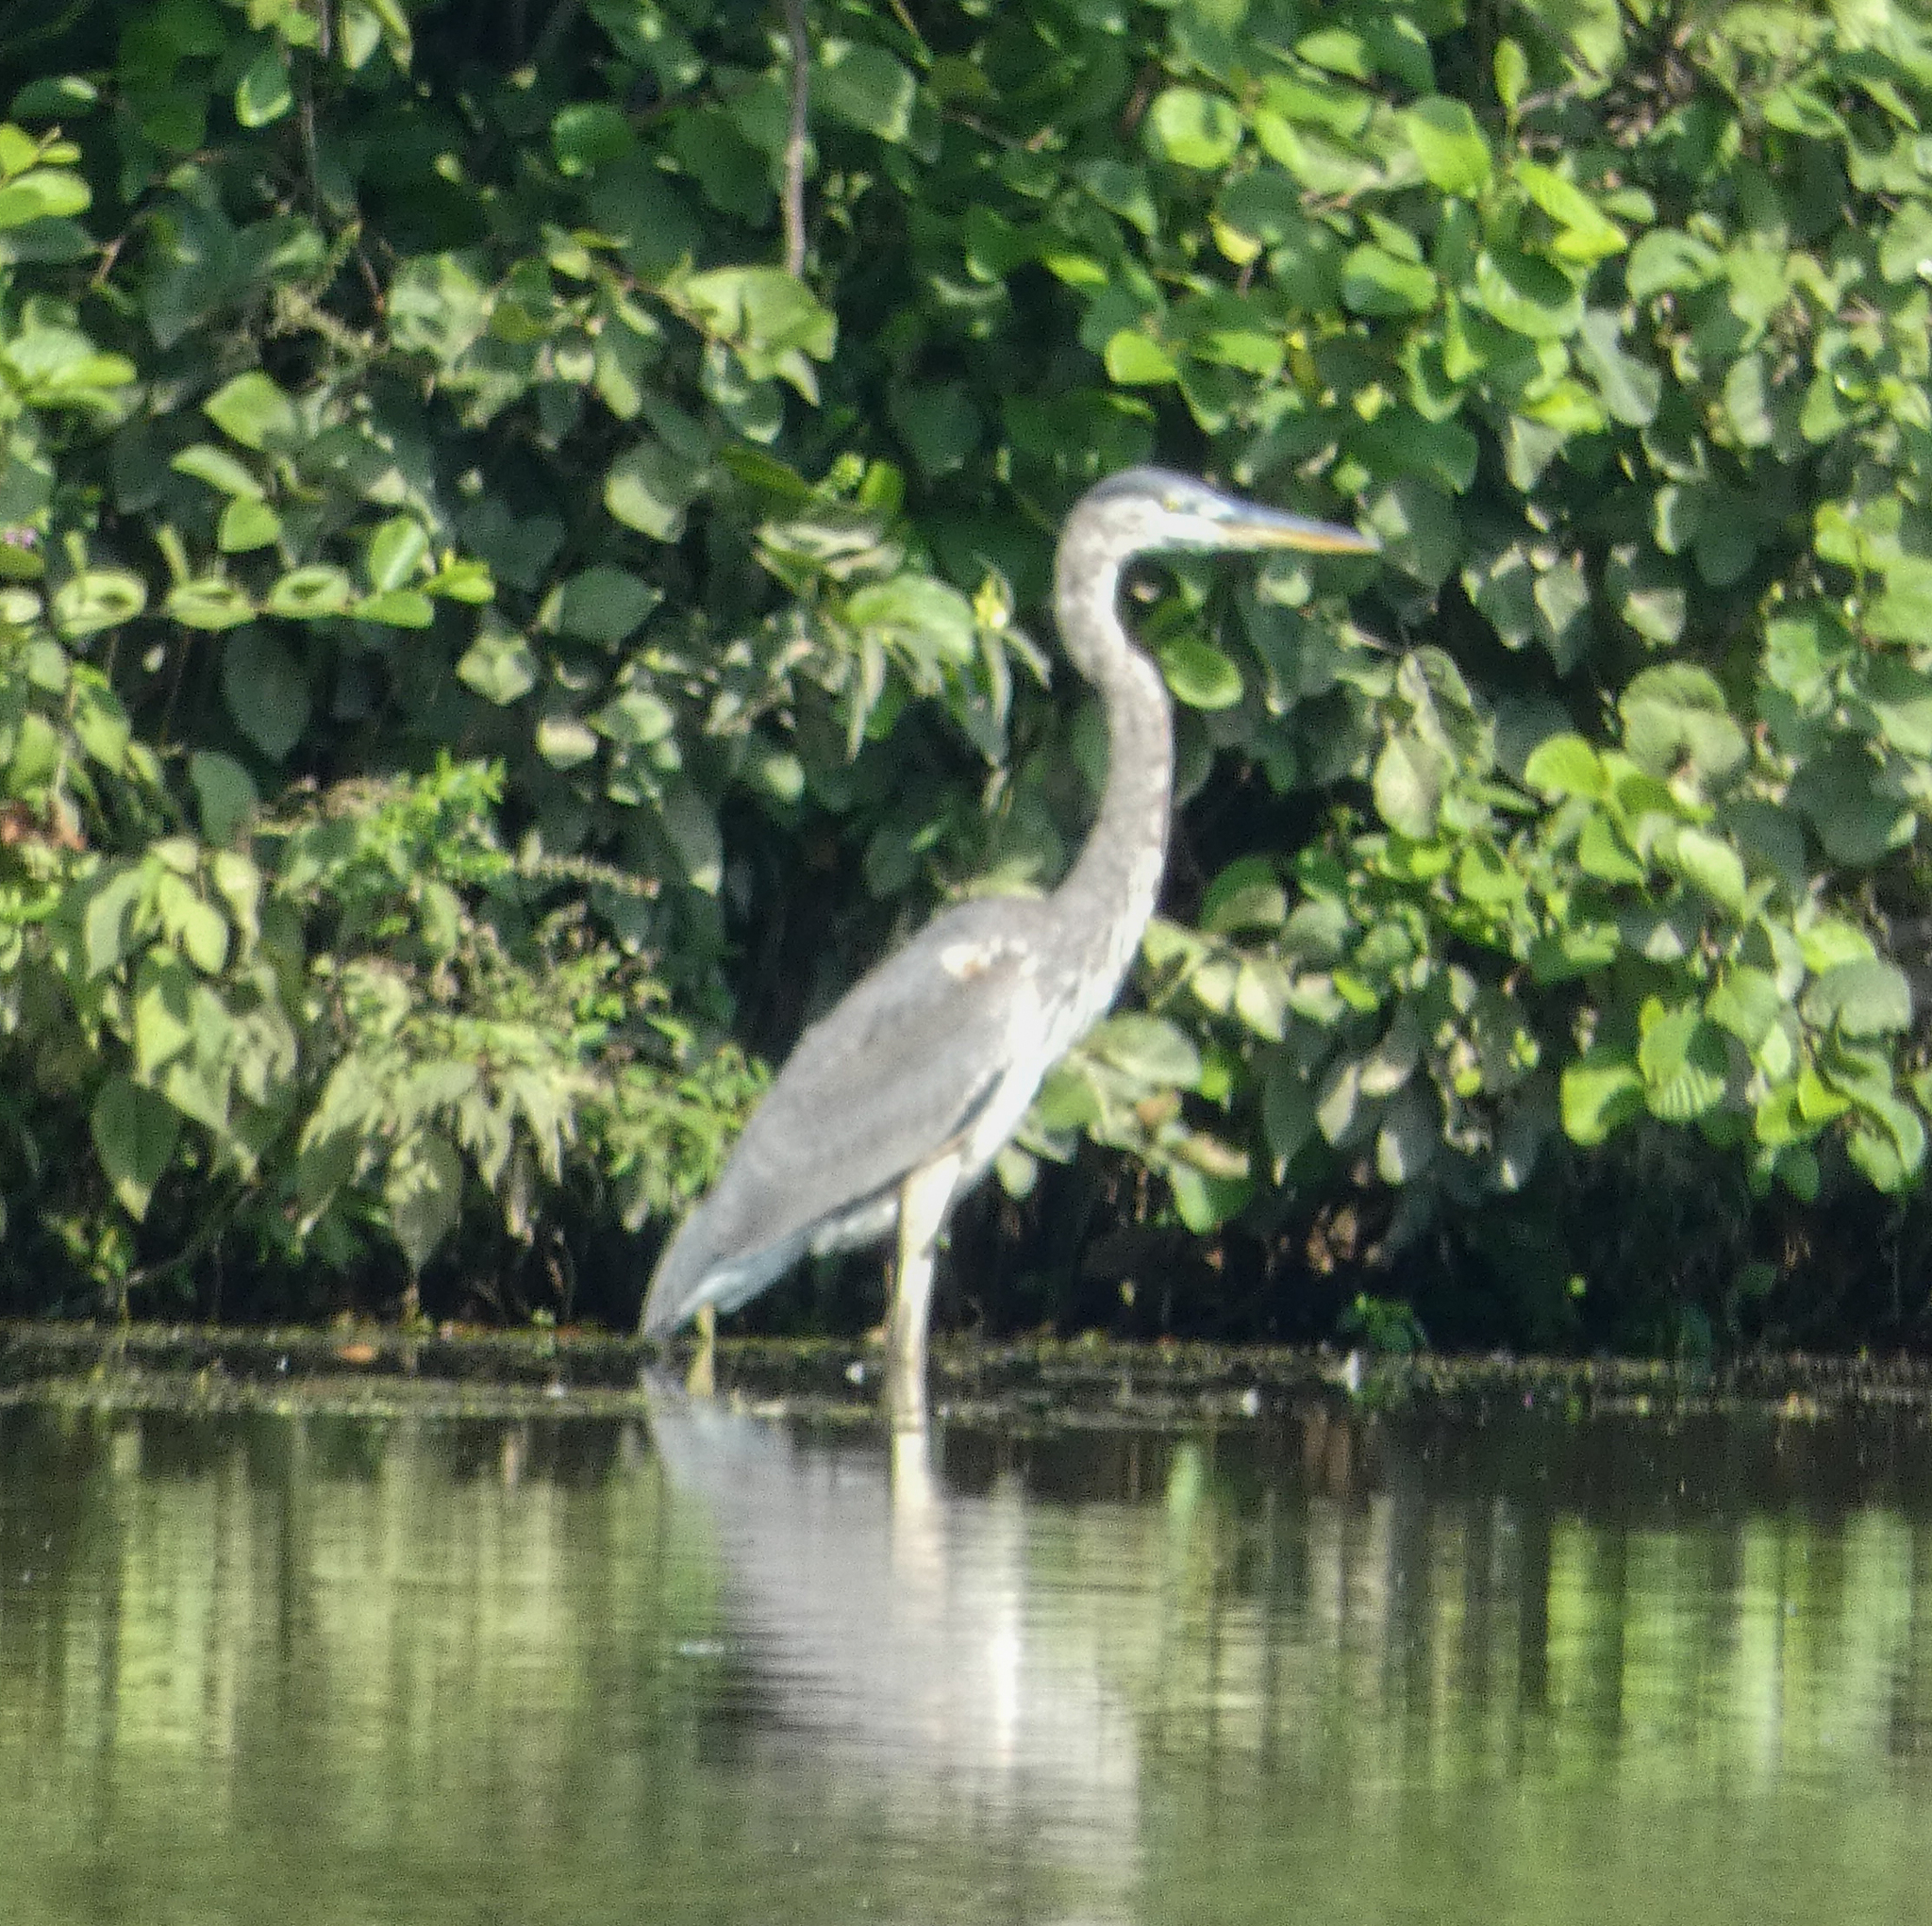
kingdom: Animalia
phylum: Chordata
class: Aves
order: Pelecaniformes
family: Ardeidae
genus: Ardea
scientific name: Ardea herodias
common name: Great blue heron
